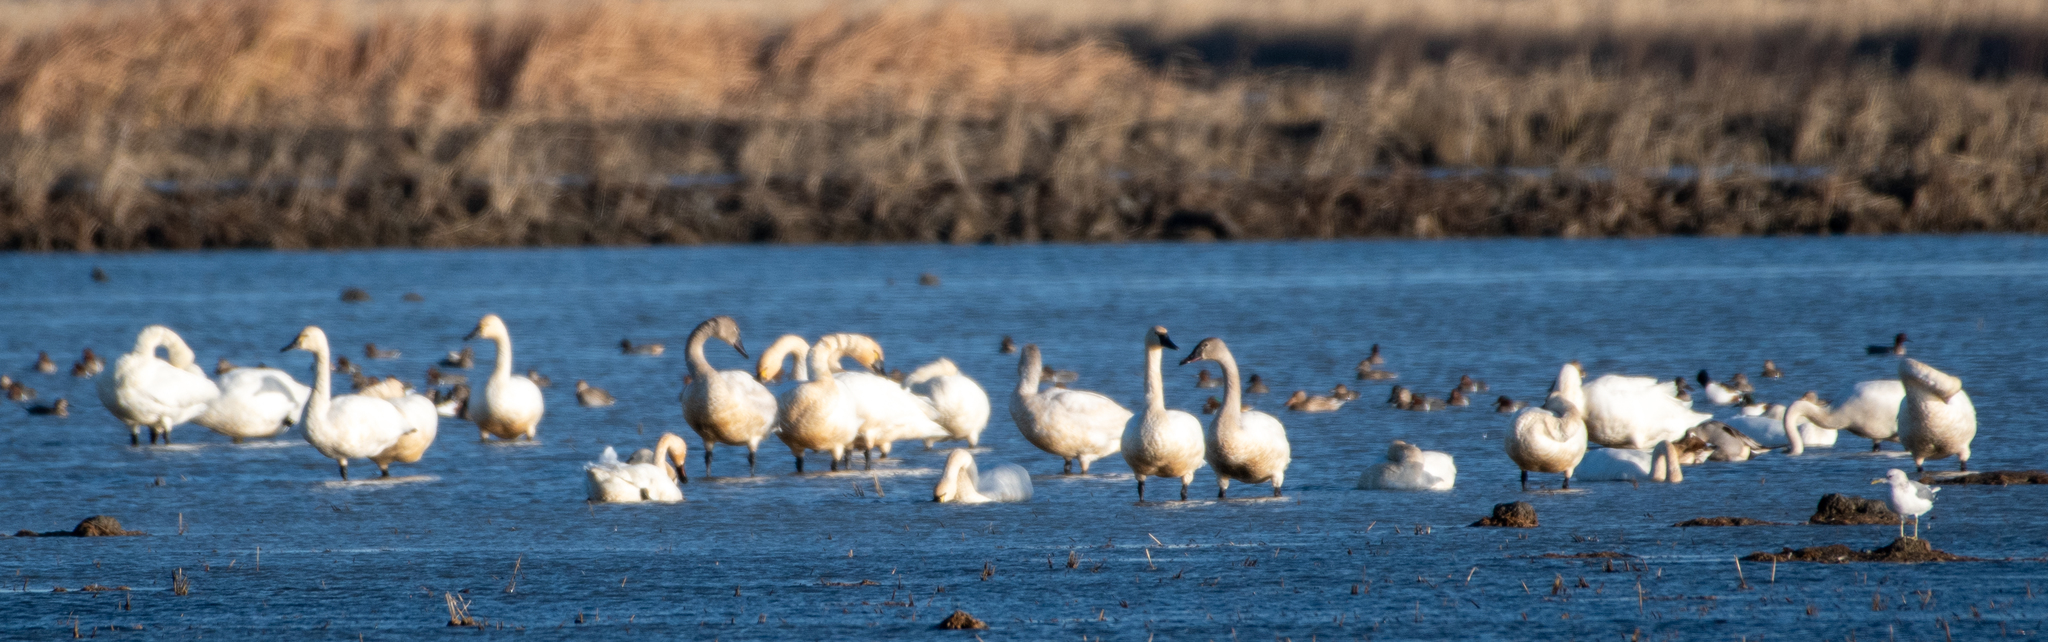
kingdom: Animalia
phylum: Chordata
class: Aves
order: Anseriformes
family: Anatidae
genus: Cygnus
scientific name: Cygnus columbianus
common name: Tundra swan
